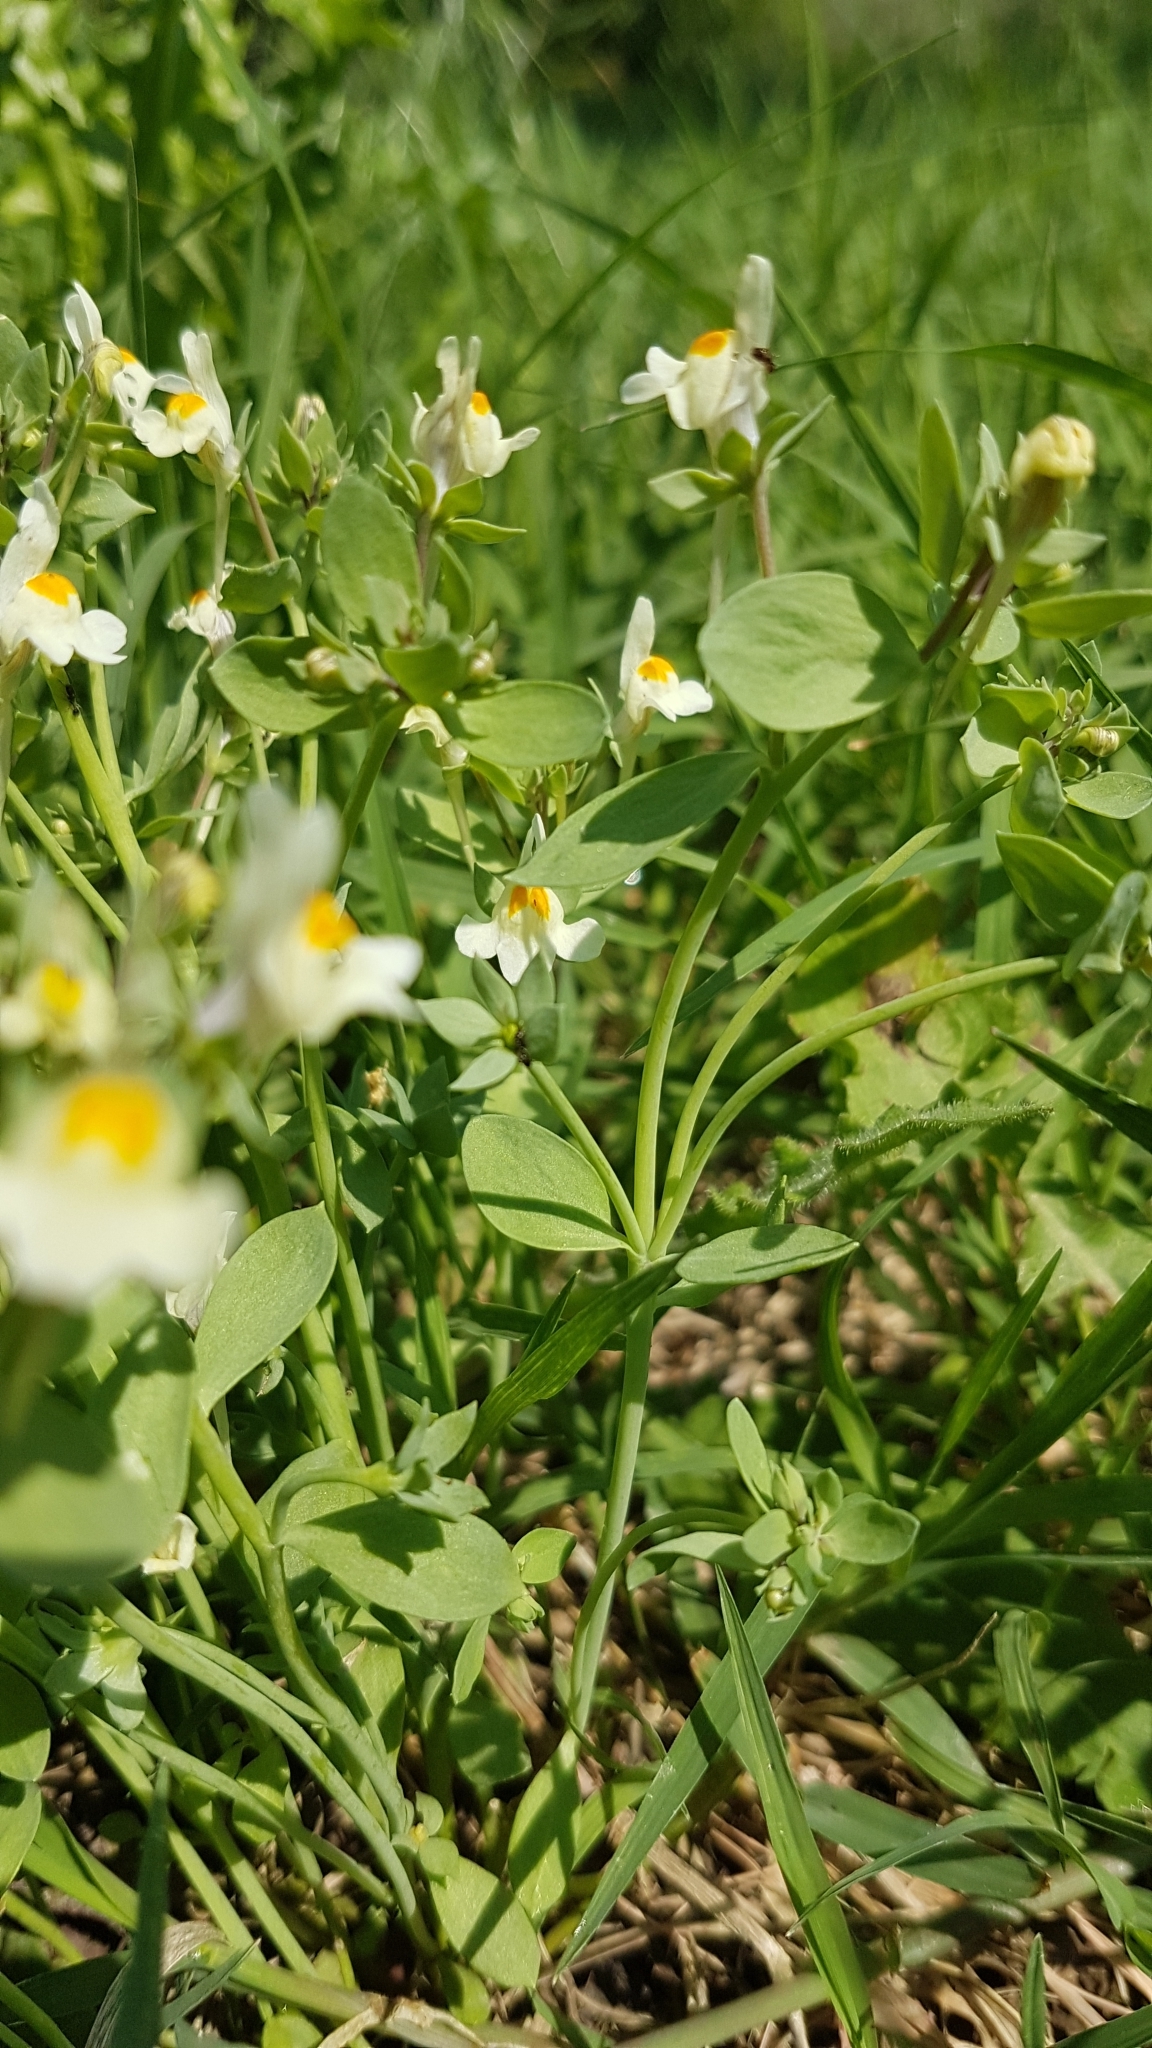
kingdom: Plantae
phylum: Tracheophyta
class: Magnoliopsida
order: Lamiales
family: Plantaginaceae
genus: Linaria
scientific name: Linaria reflexa
